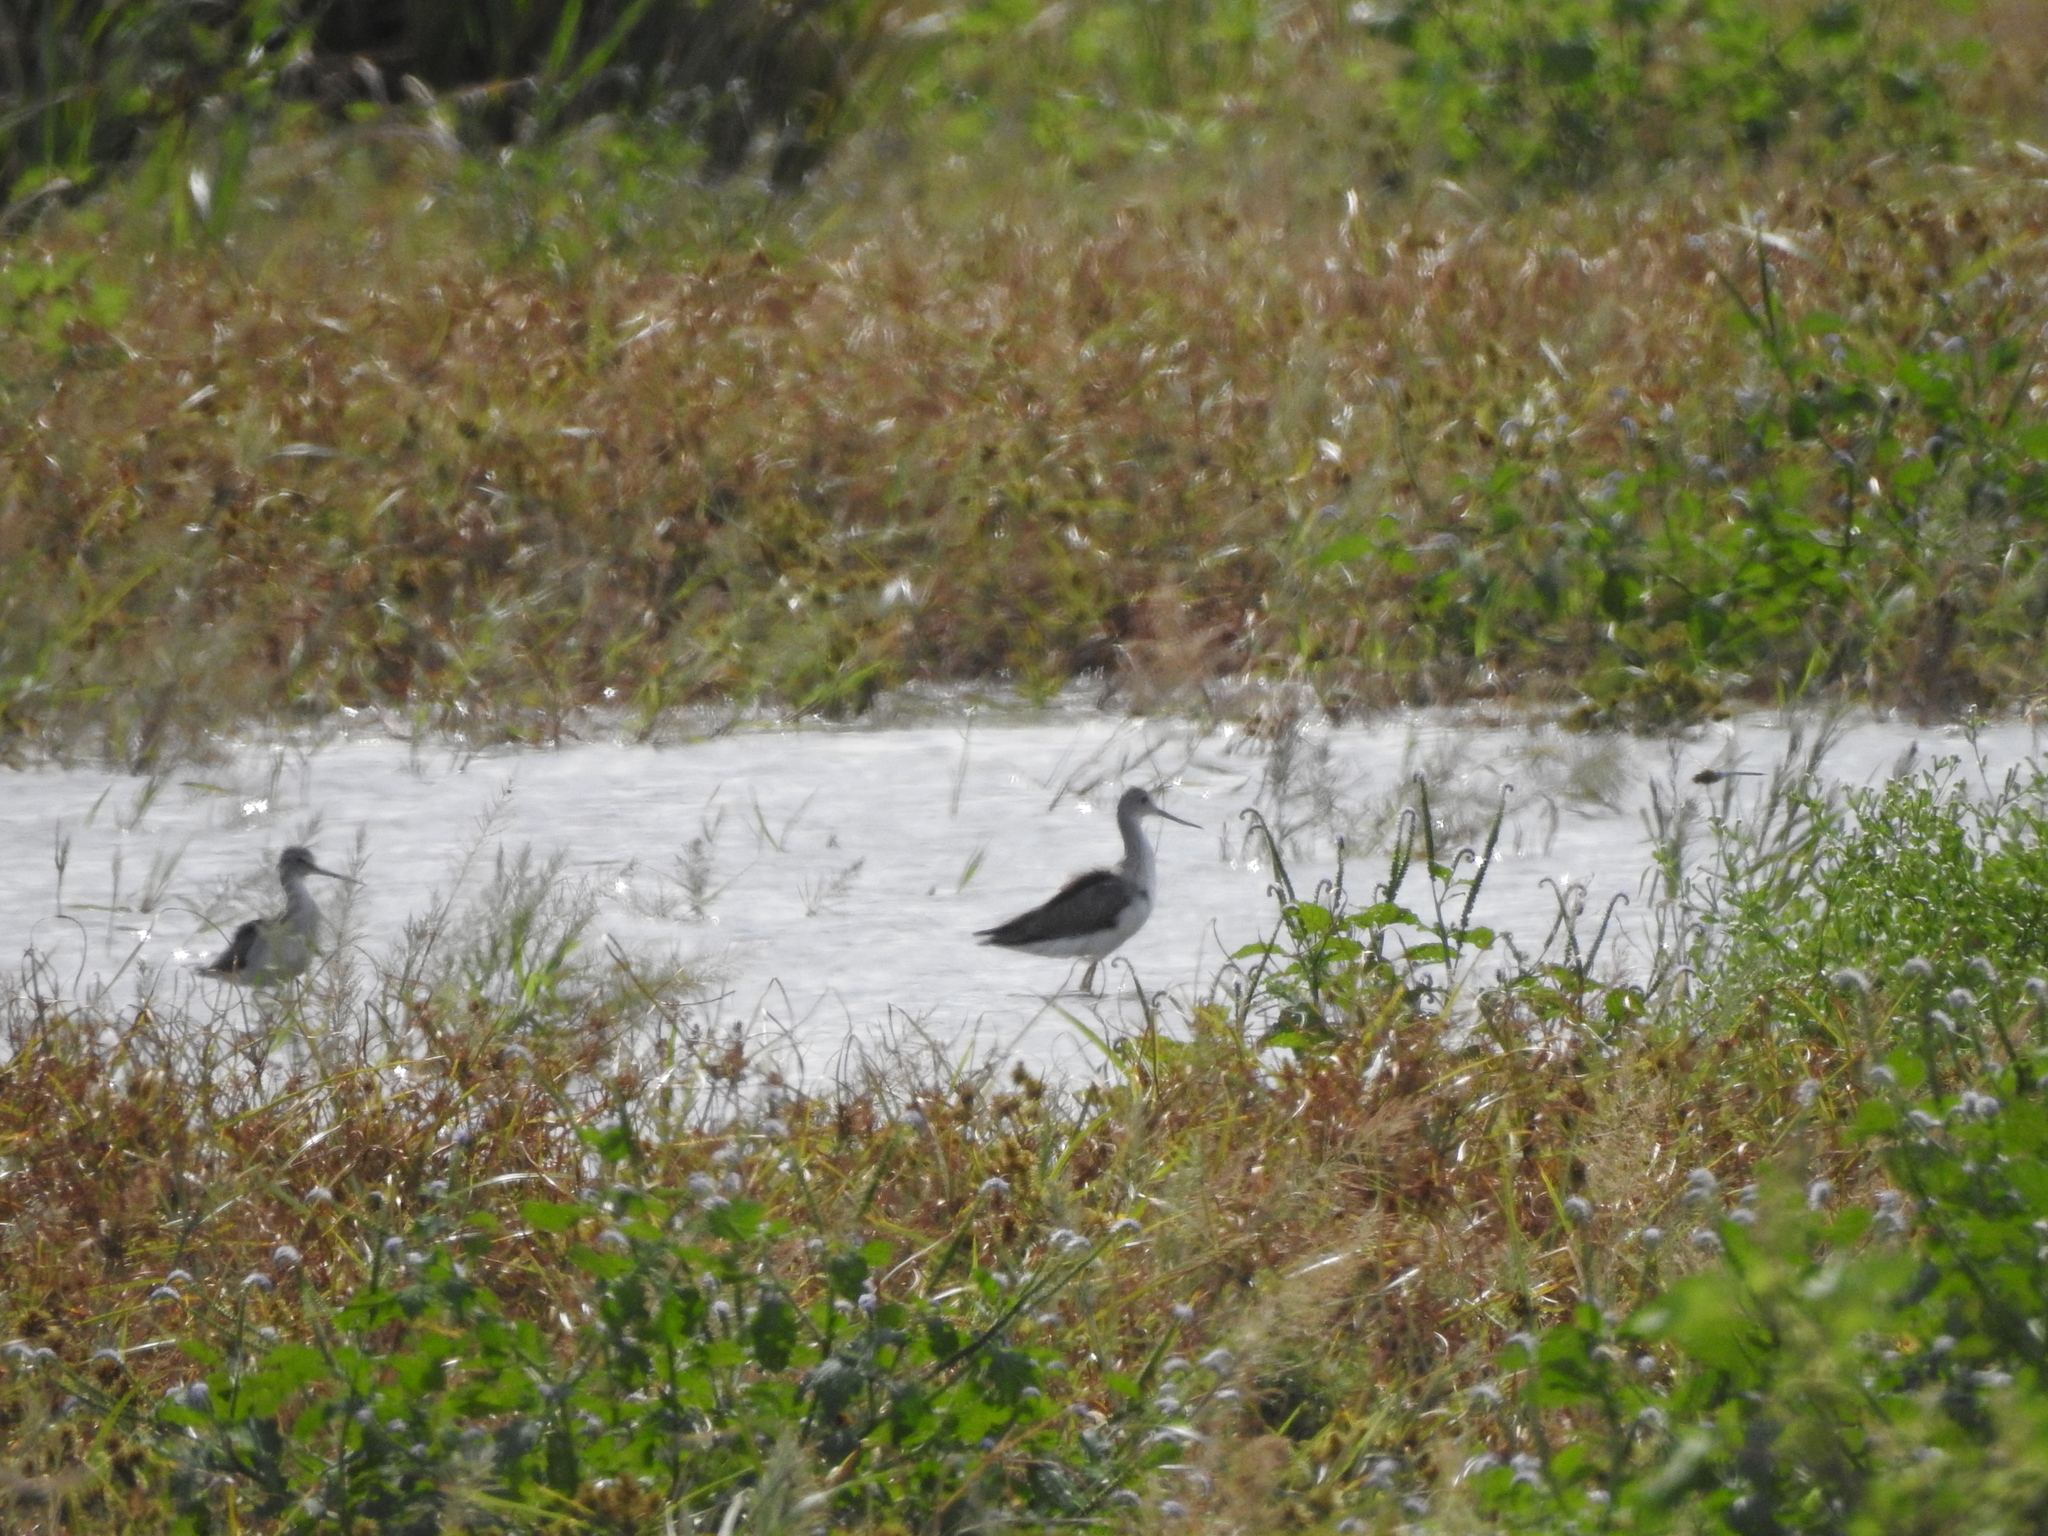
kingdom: Animalia
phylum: Chordata
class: Aves
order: Charadriiformes
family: Scolopacidae
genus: Tringa
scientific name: Tringa melanoleuca
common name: Greater yellowlegs
